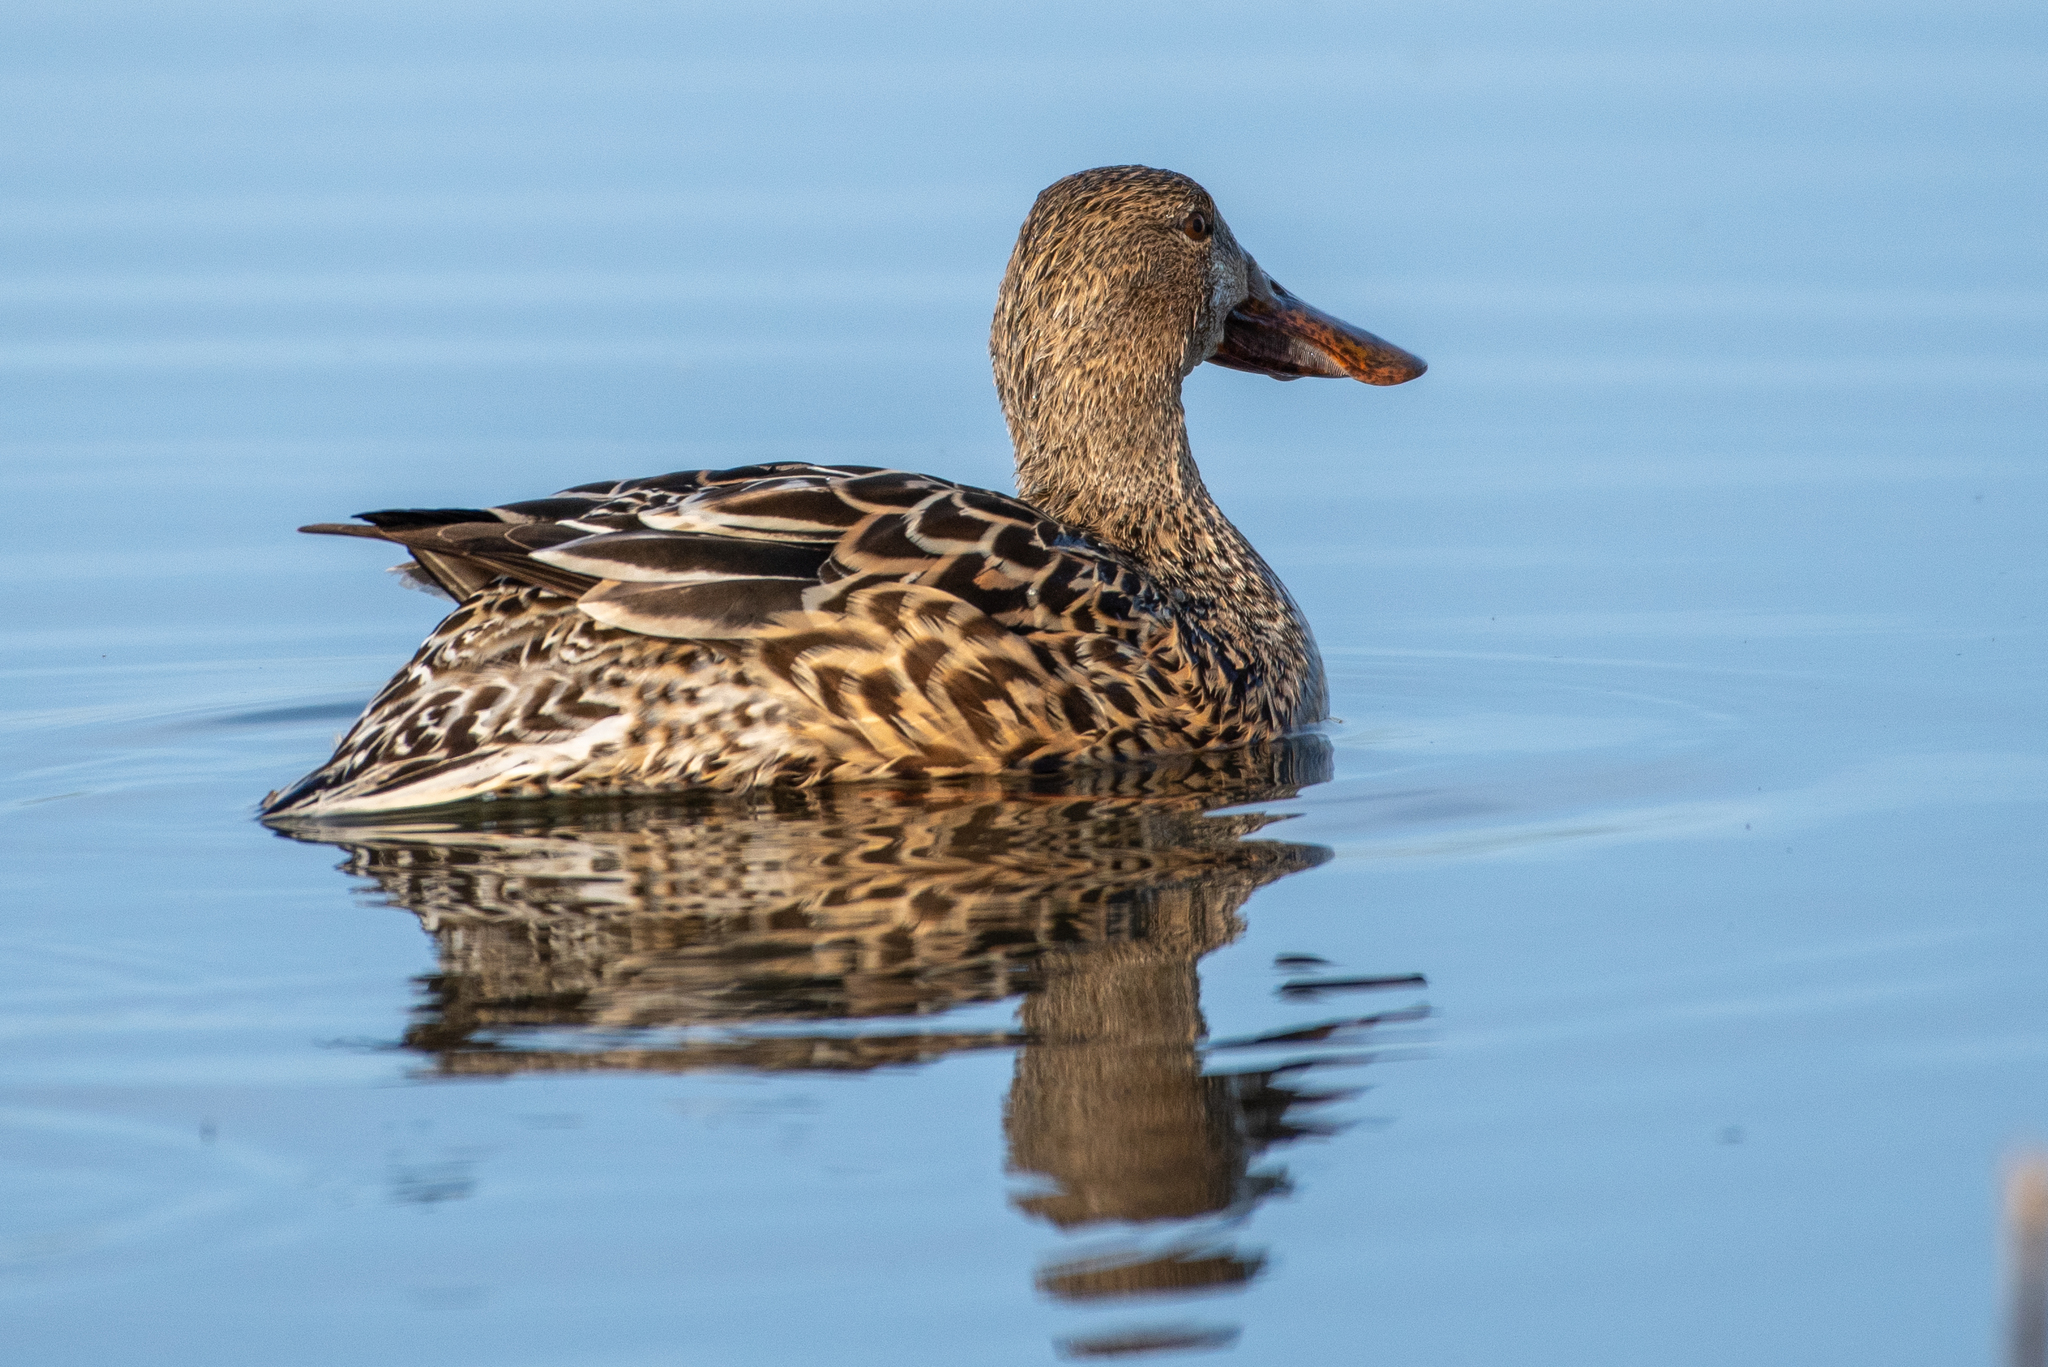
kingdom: Animalia
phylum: Chordata
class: Aves
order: Anseriformes
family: Anatidae
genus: Spatula
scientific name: Spatula clypeata
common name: Northern shoveler
